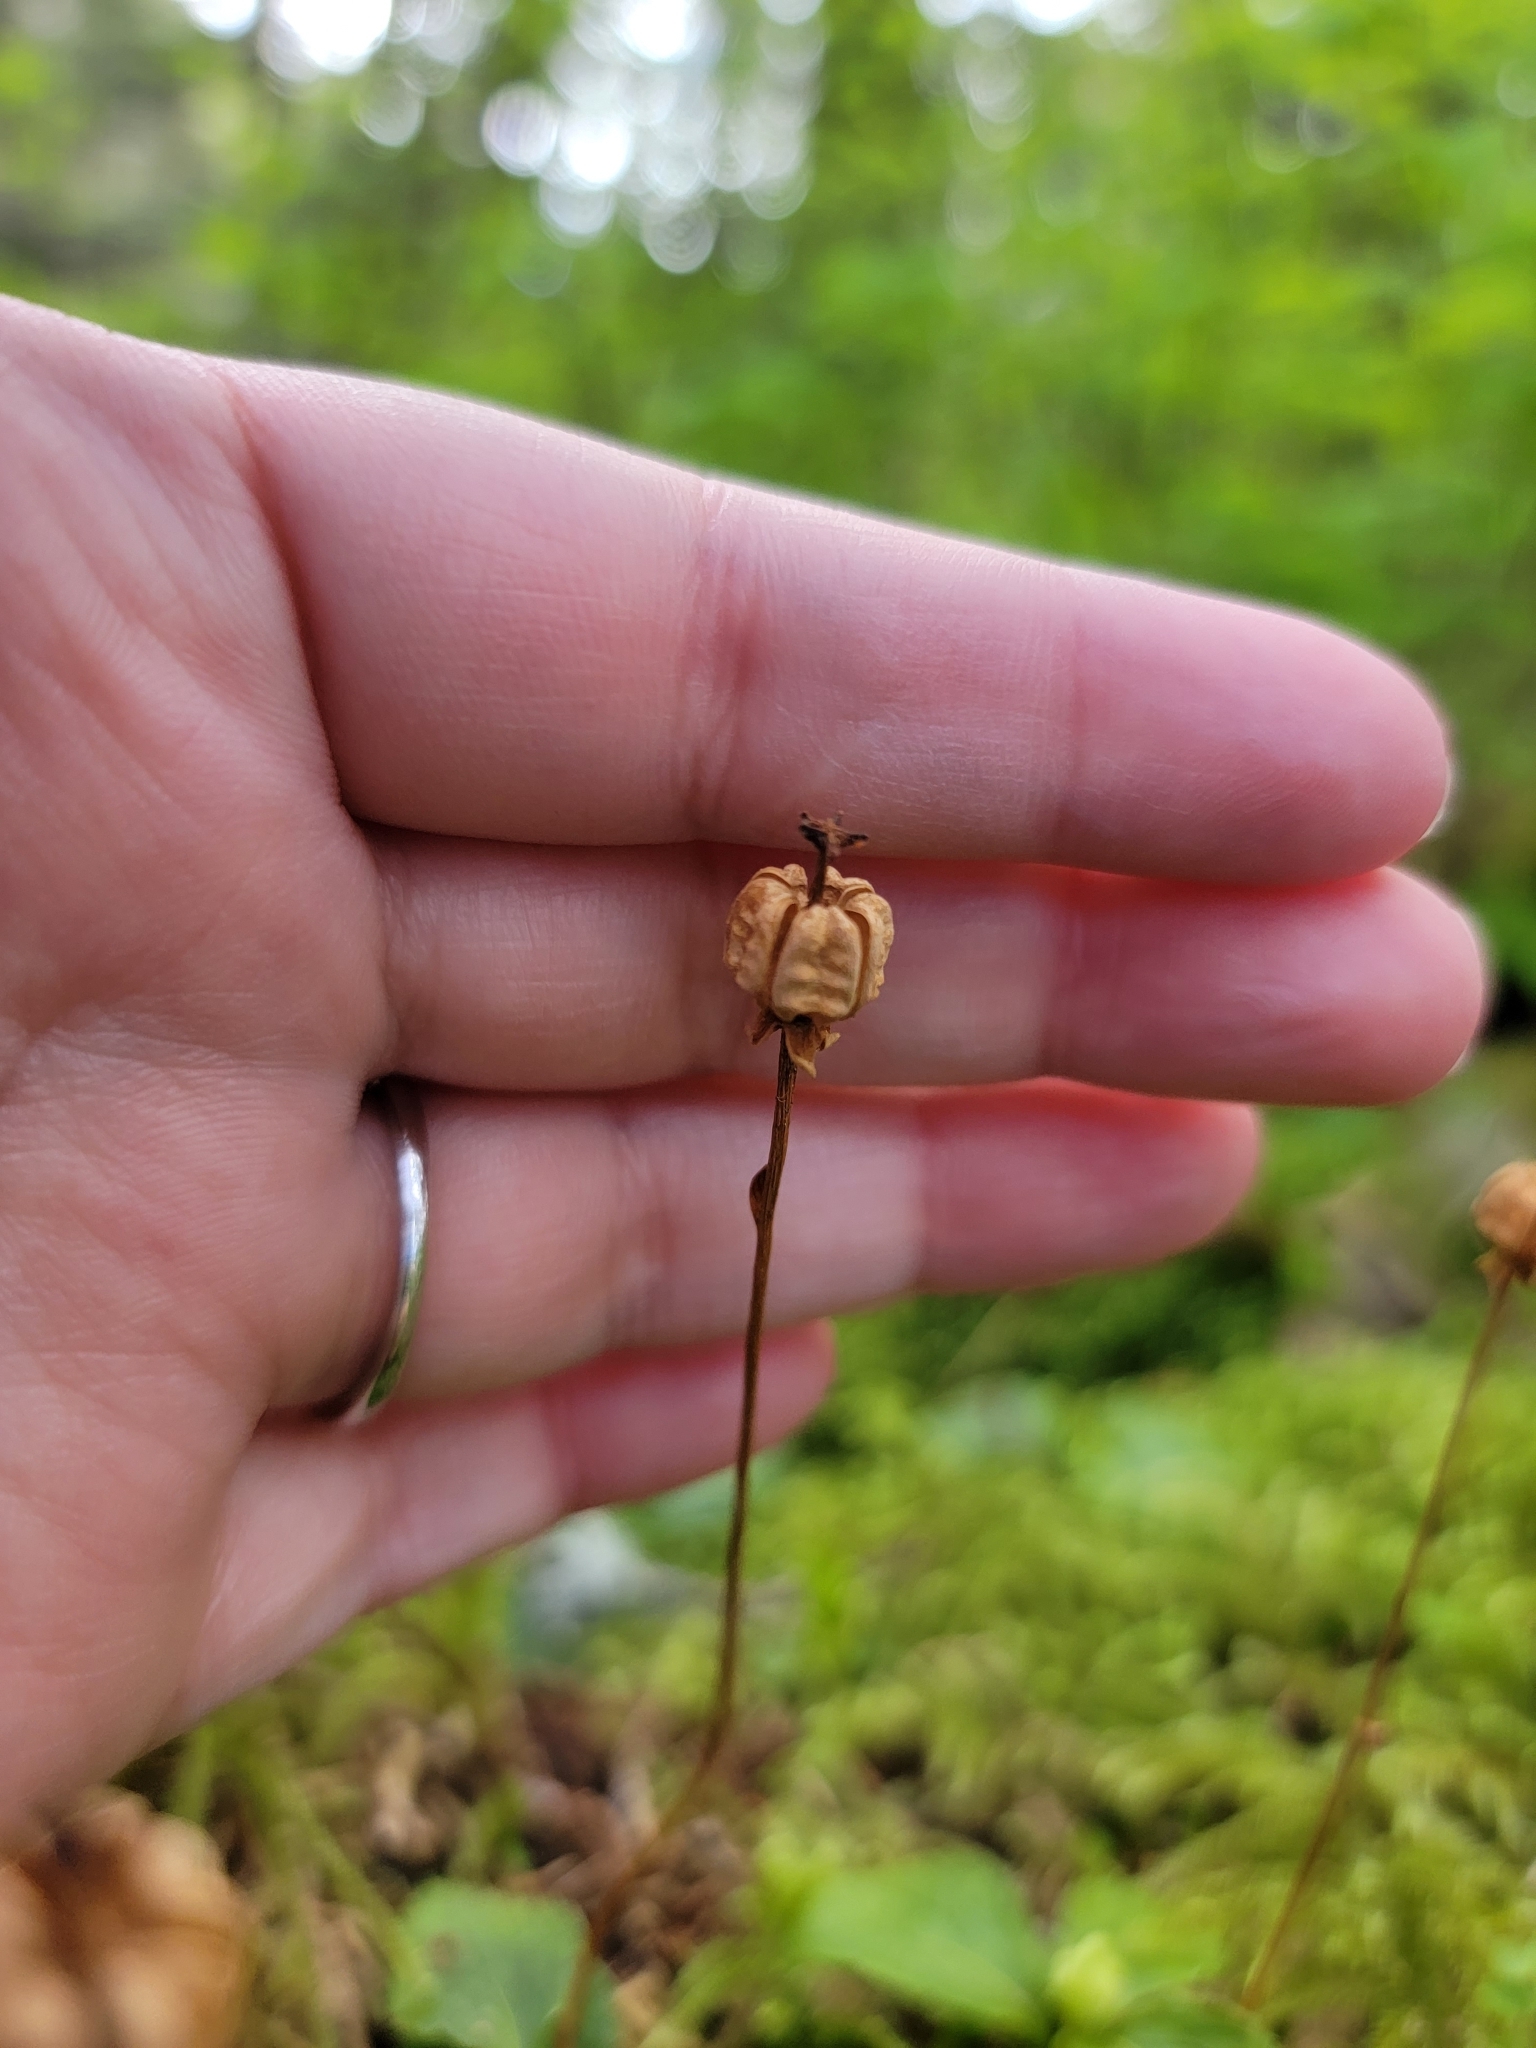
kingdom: Plantae
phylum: Tracheophyta
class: Magnoliopsida
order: Ericales
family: Ericaceae
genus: Moneses
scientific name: Moneses uniflora
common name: One-flowered wintergreen
